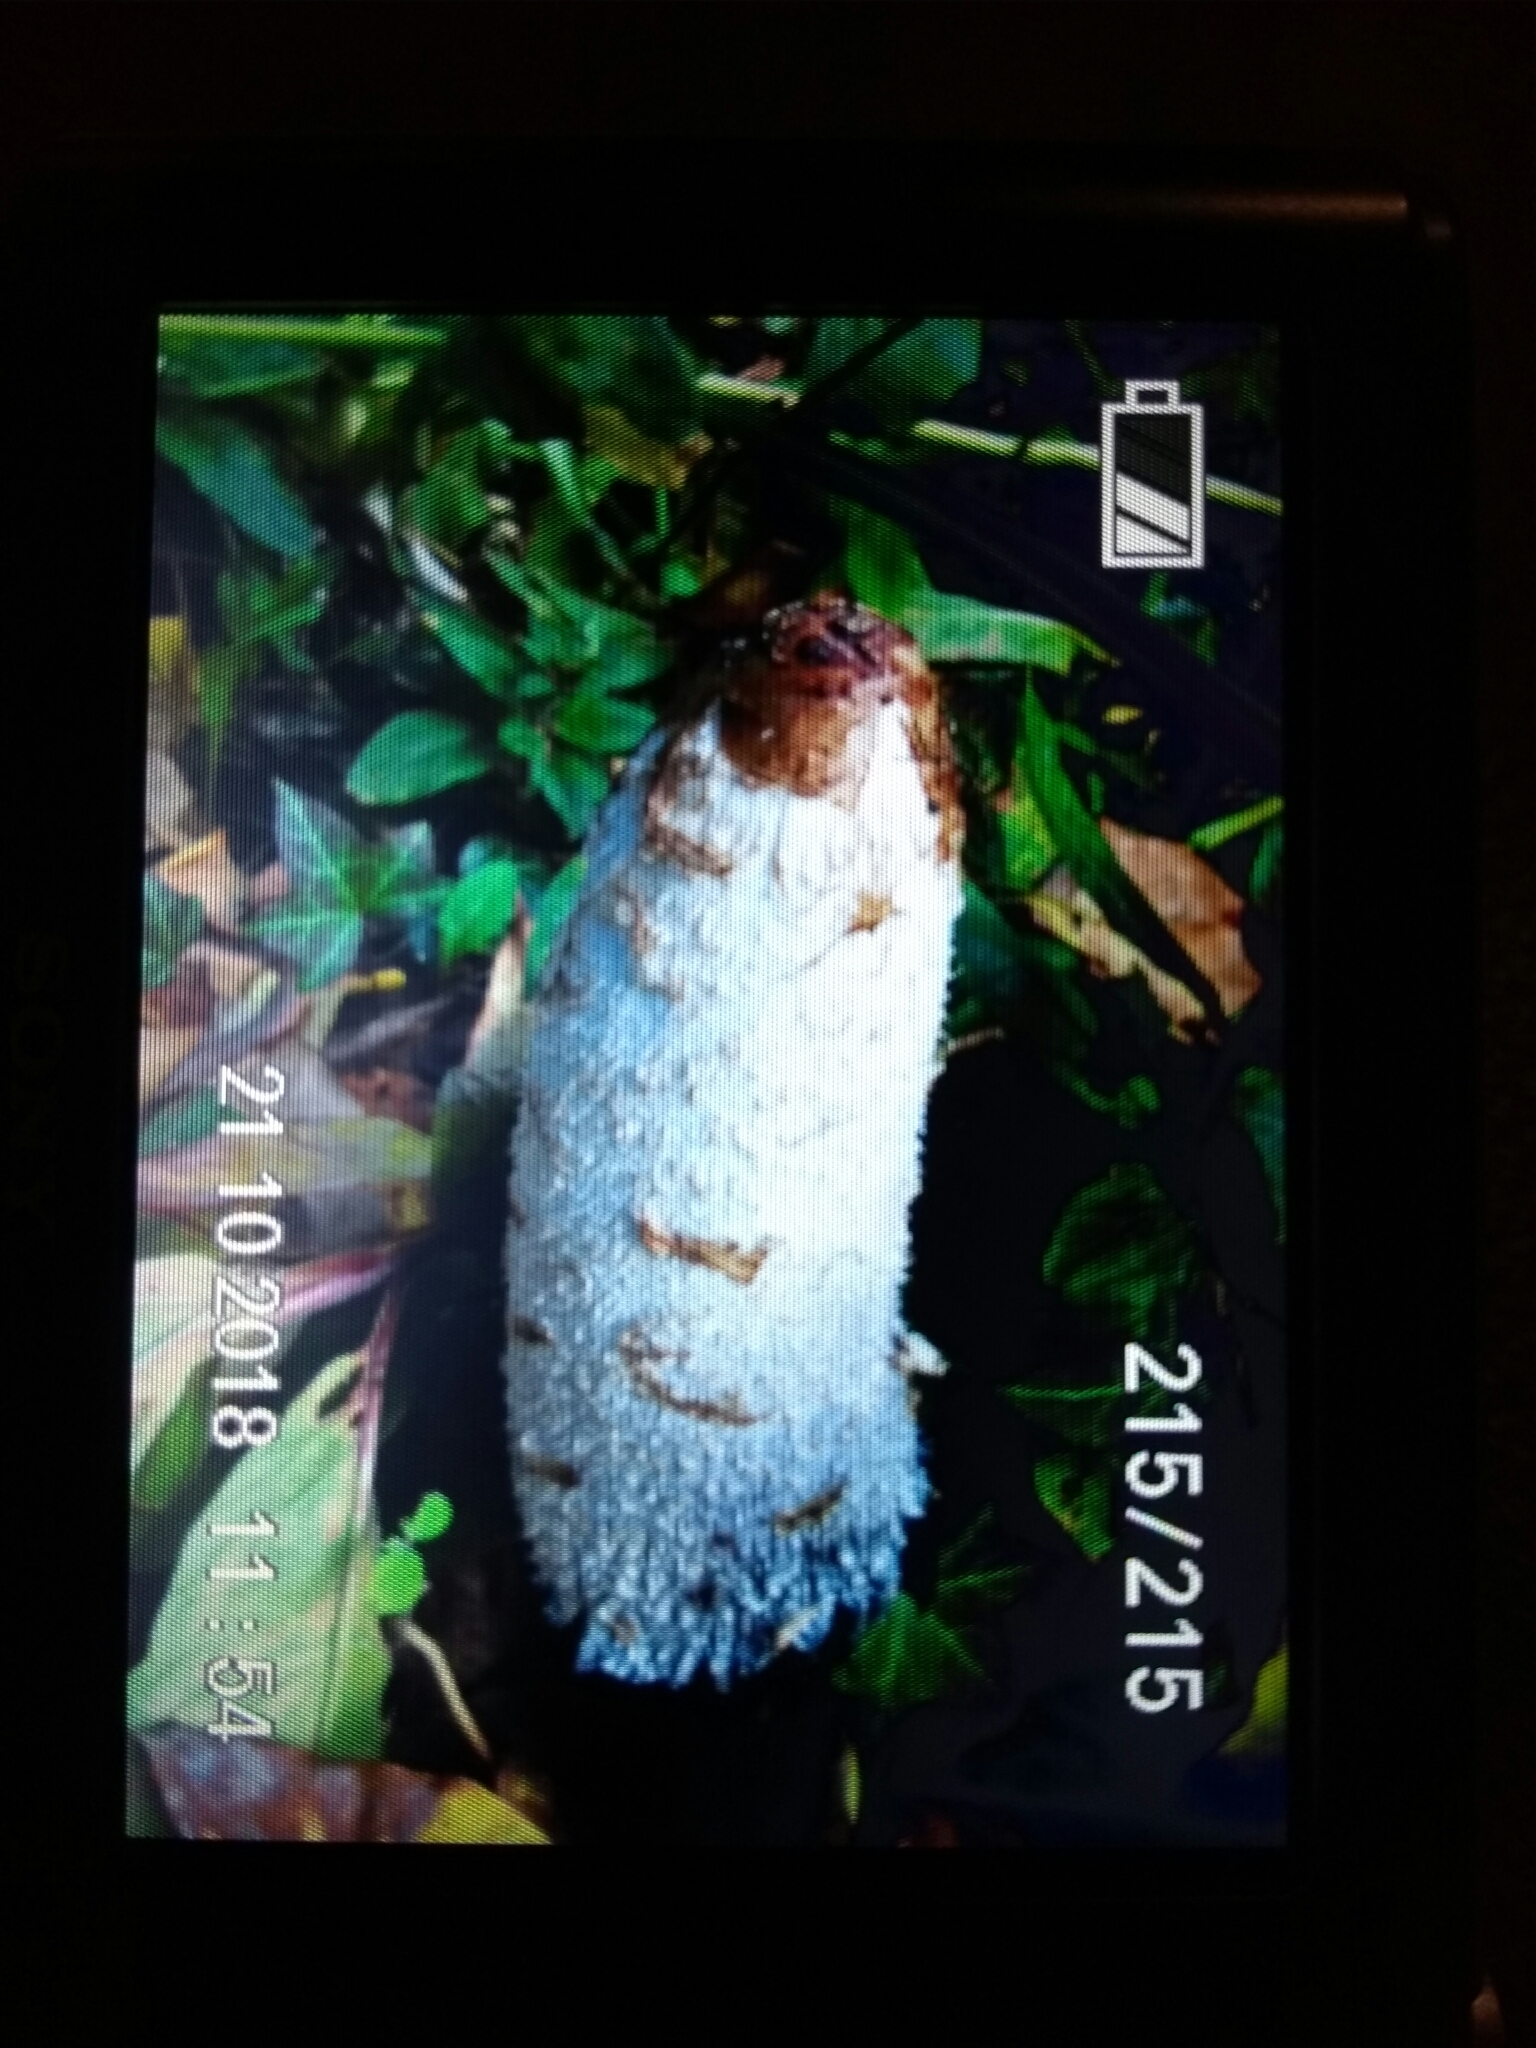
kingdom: Fungi
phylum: Basidiomycota
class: Agaricomycetes
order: Agaricales
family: Agaricaceae
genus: Coprinus
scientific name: Coprinus comatus
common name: Lawyer's wig
